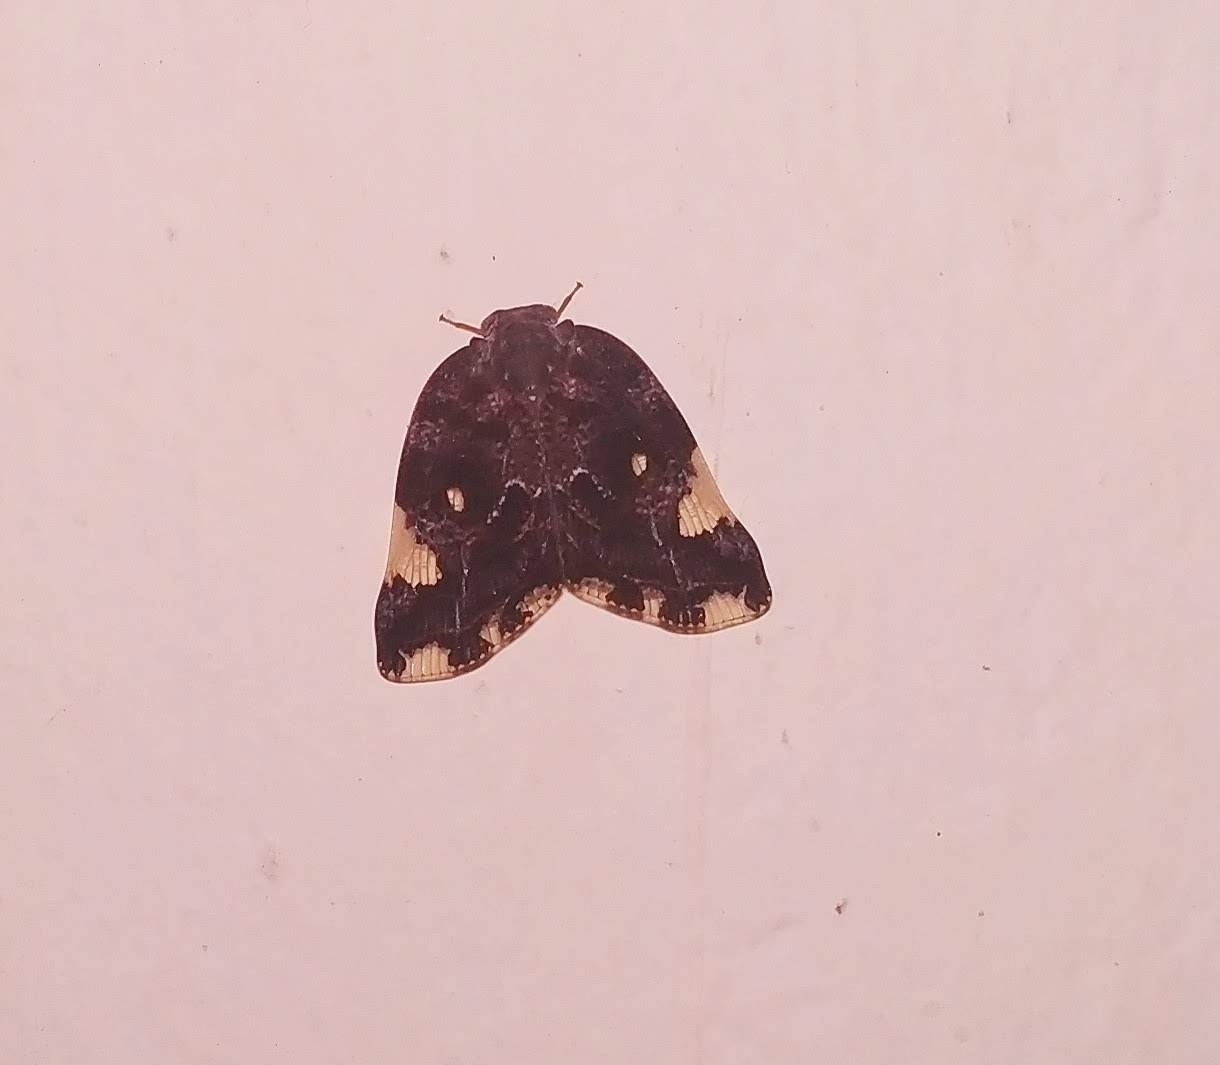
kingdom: Animalia
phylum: Arthropoda
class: Insecta
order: Hemiptera
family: Ricaniidae
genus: Ricania
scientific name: Ricania speculum
